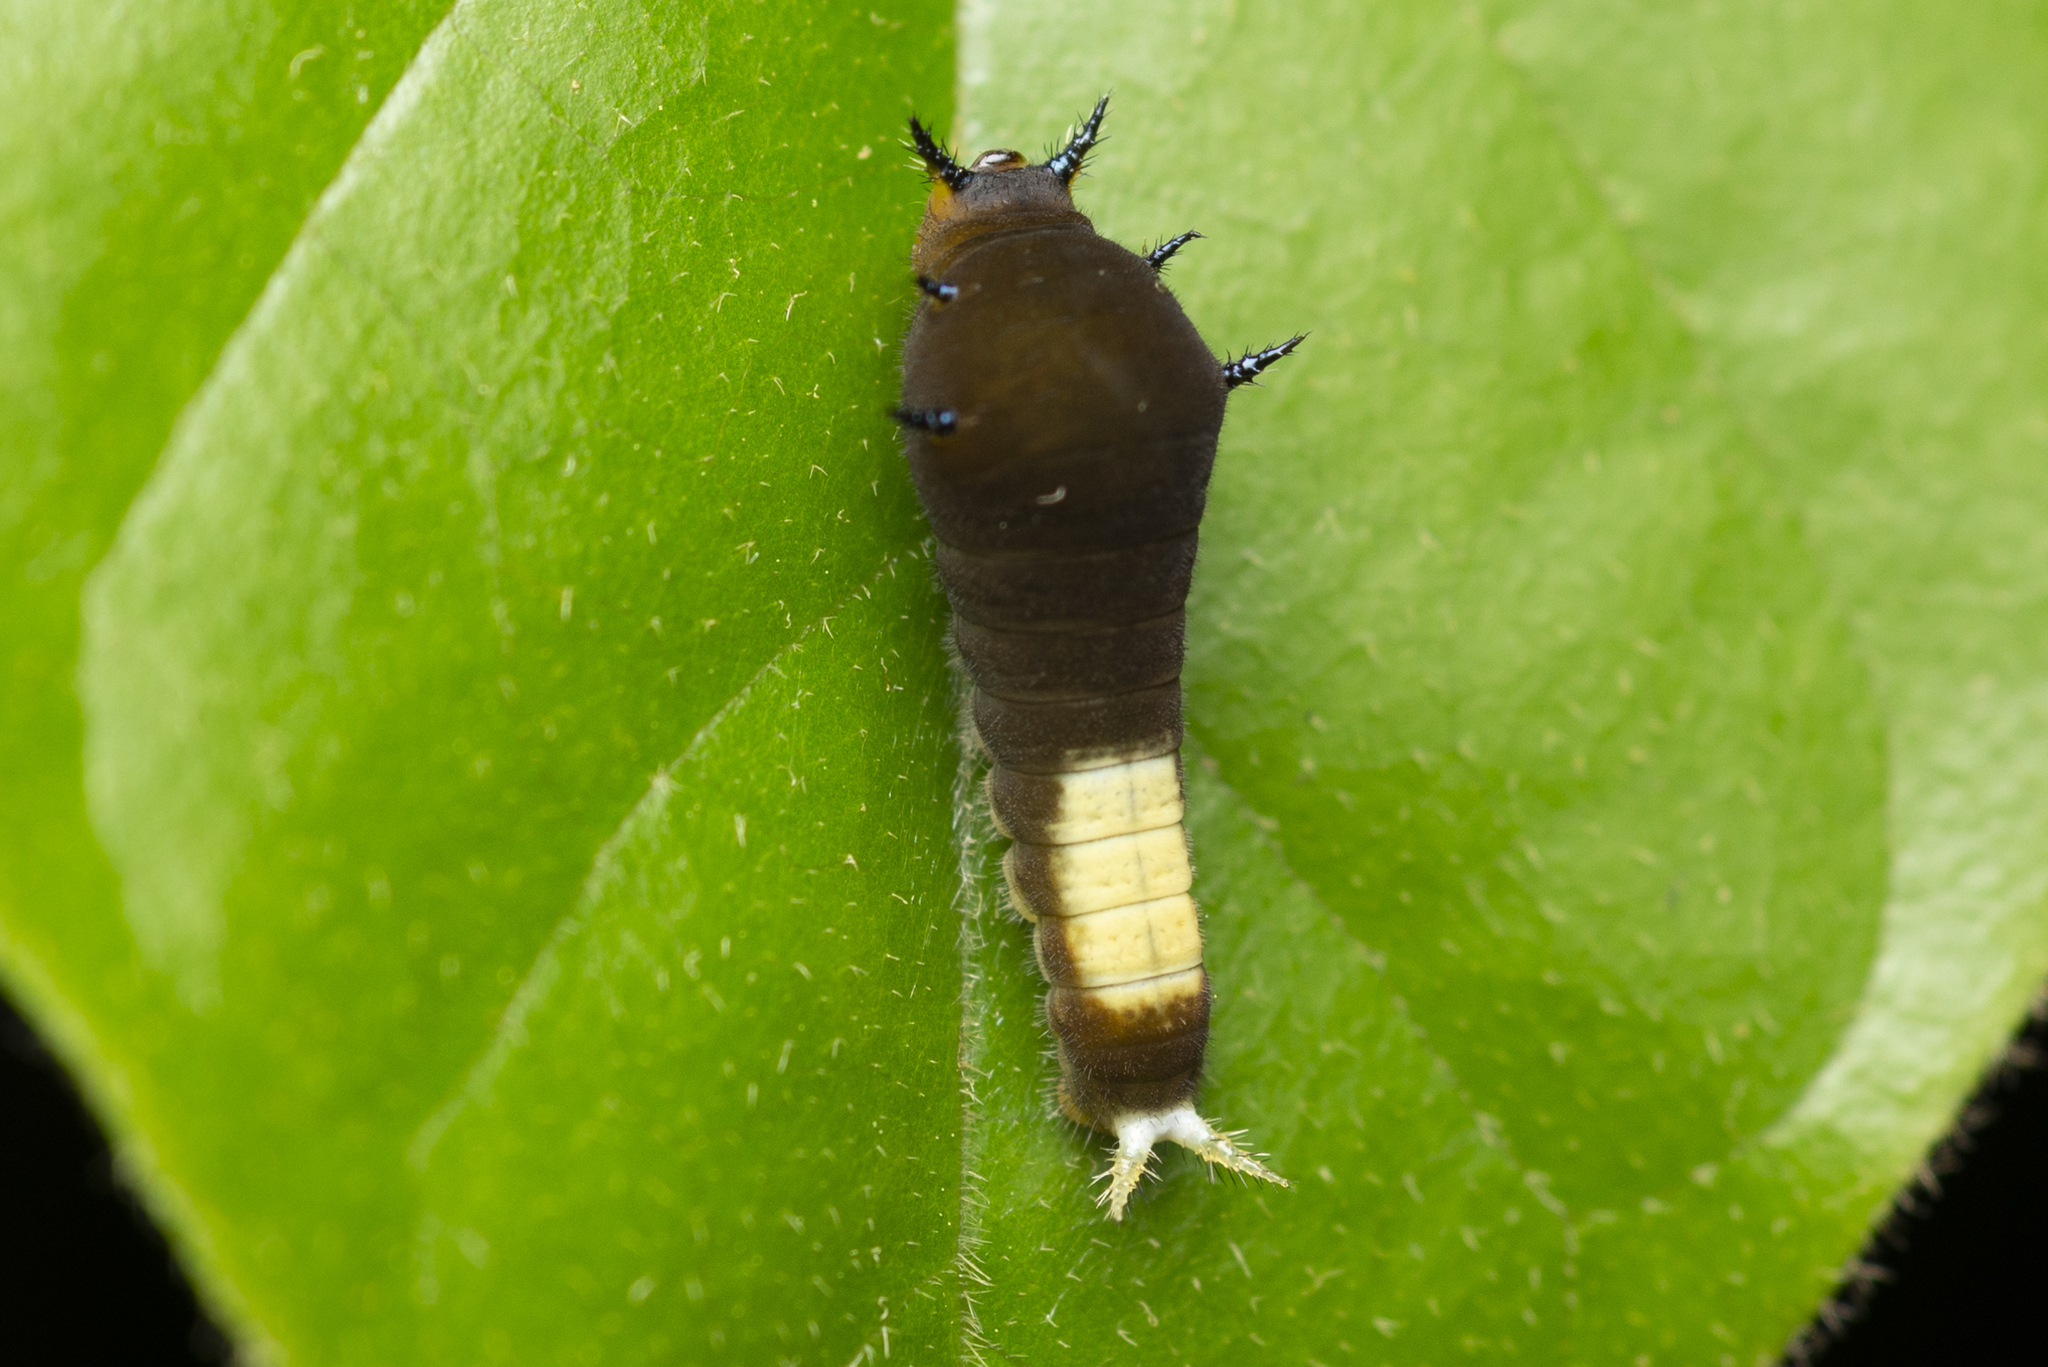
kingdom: Animalia
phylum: Arthropoda
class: Insecta
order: Lepidoptera
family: Papilionidae
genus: Graphium
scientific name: Graphium agamemnon
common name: Tailed jay
